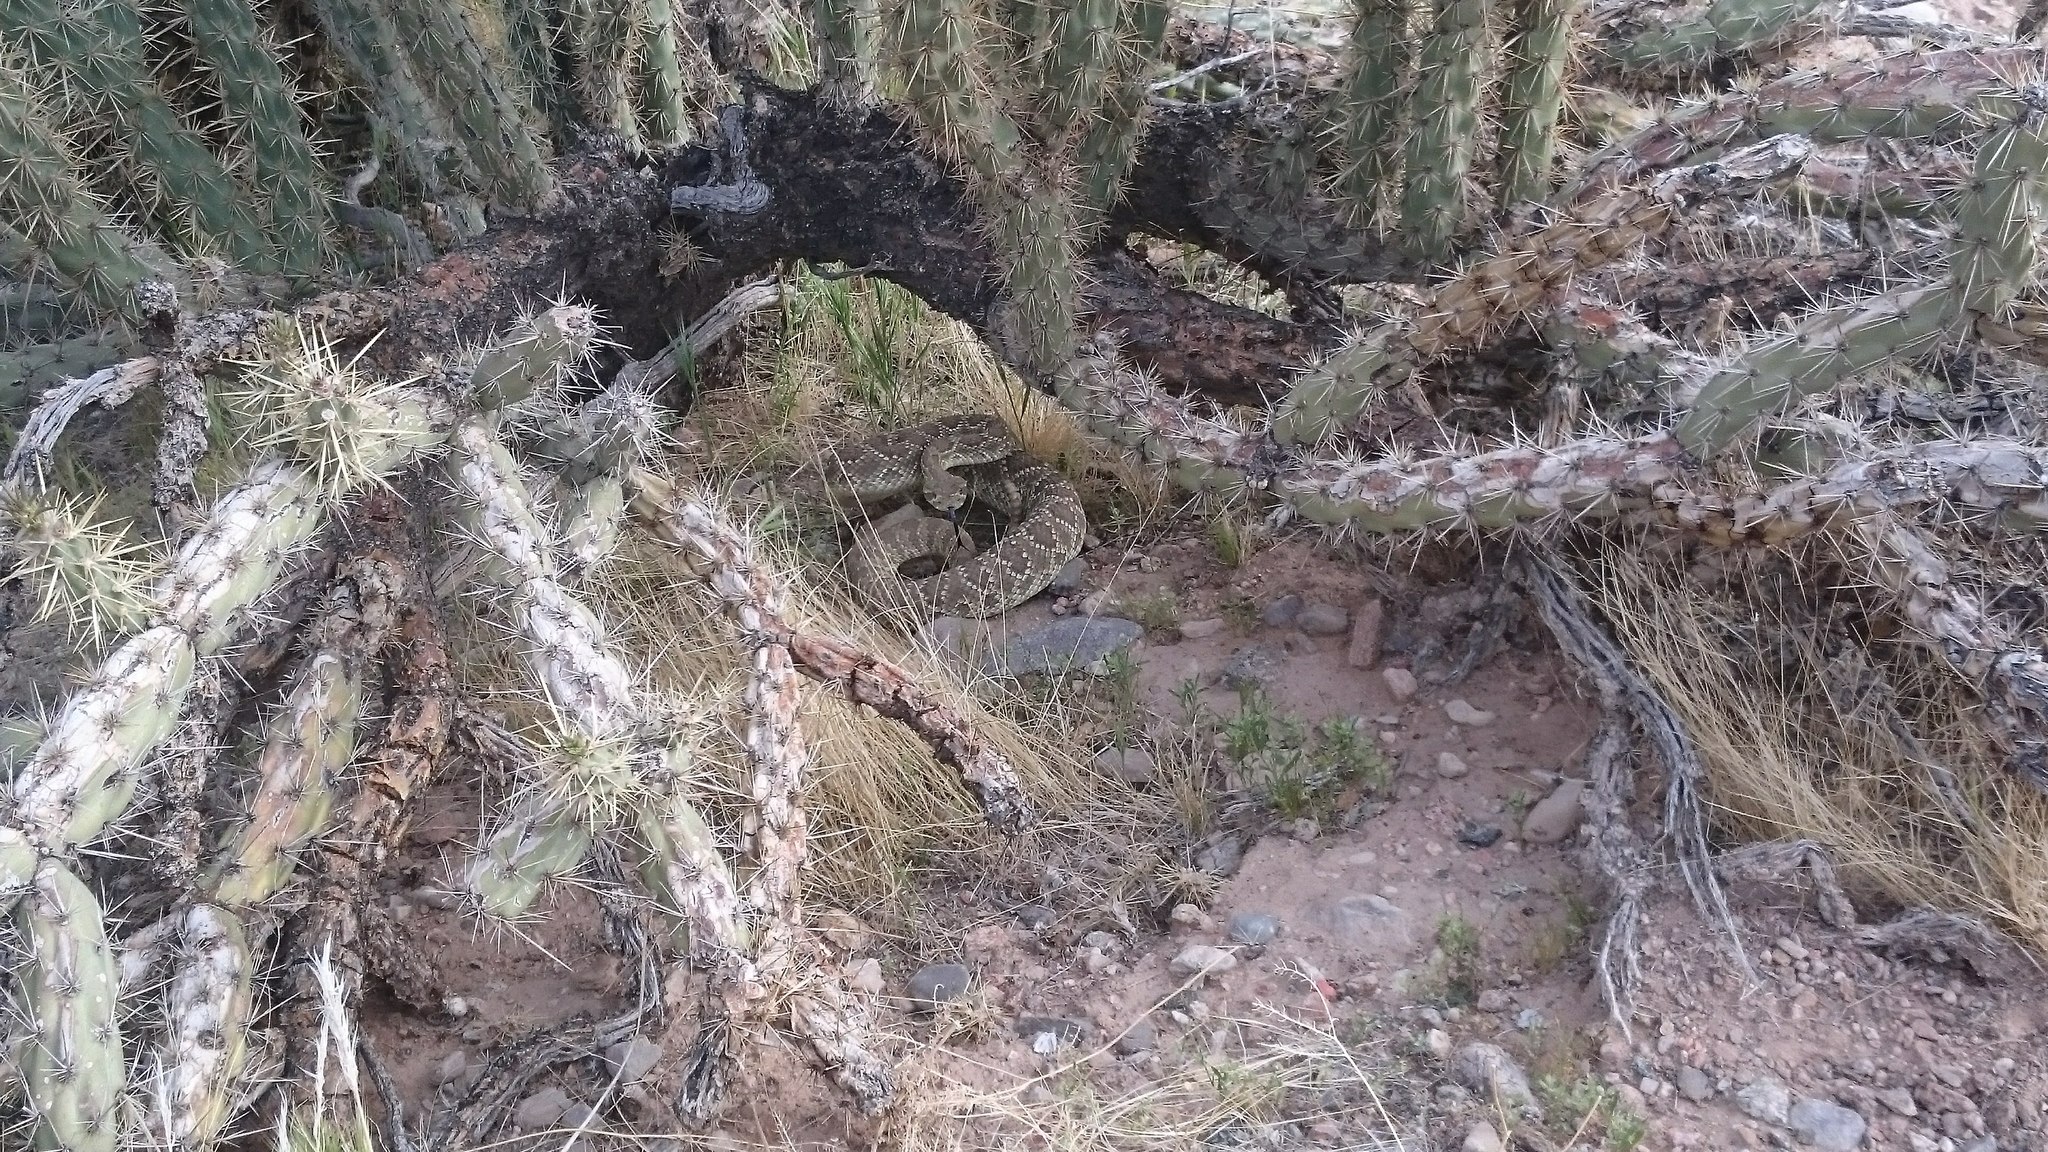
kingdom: Animalia
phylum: Chordata
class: Squamata
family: Viperidae
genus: Crotalus
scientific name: Crotalus scutulatus
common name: Scutulatus
